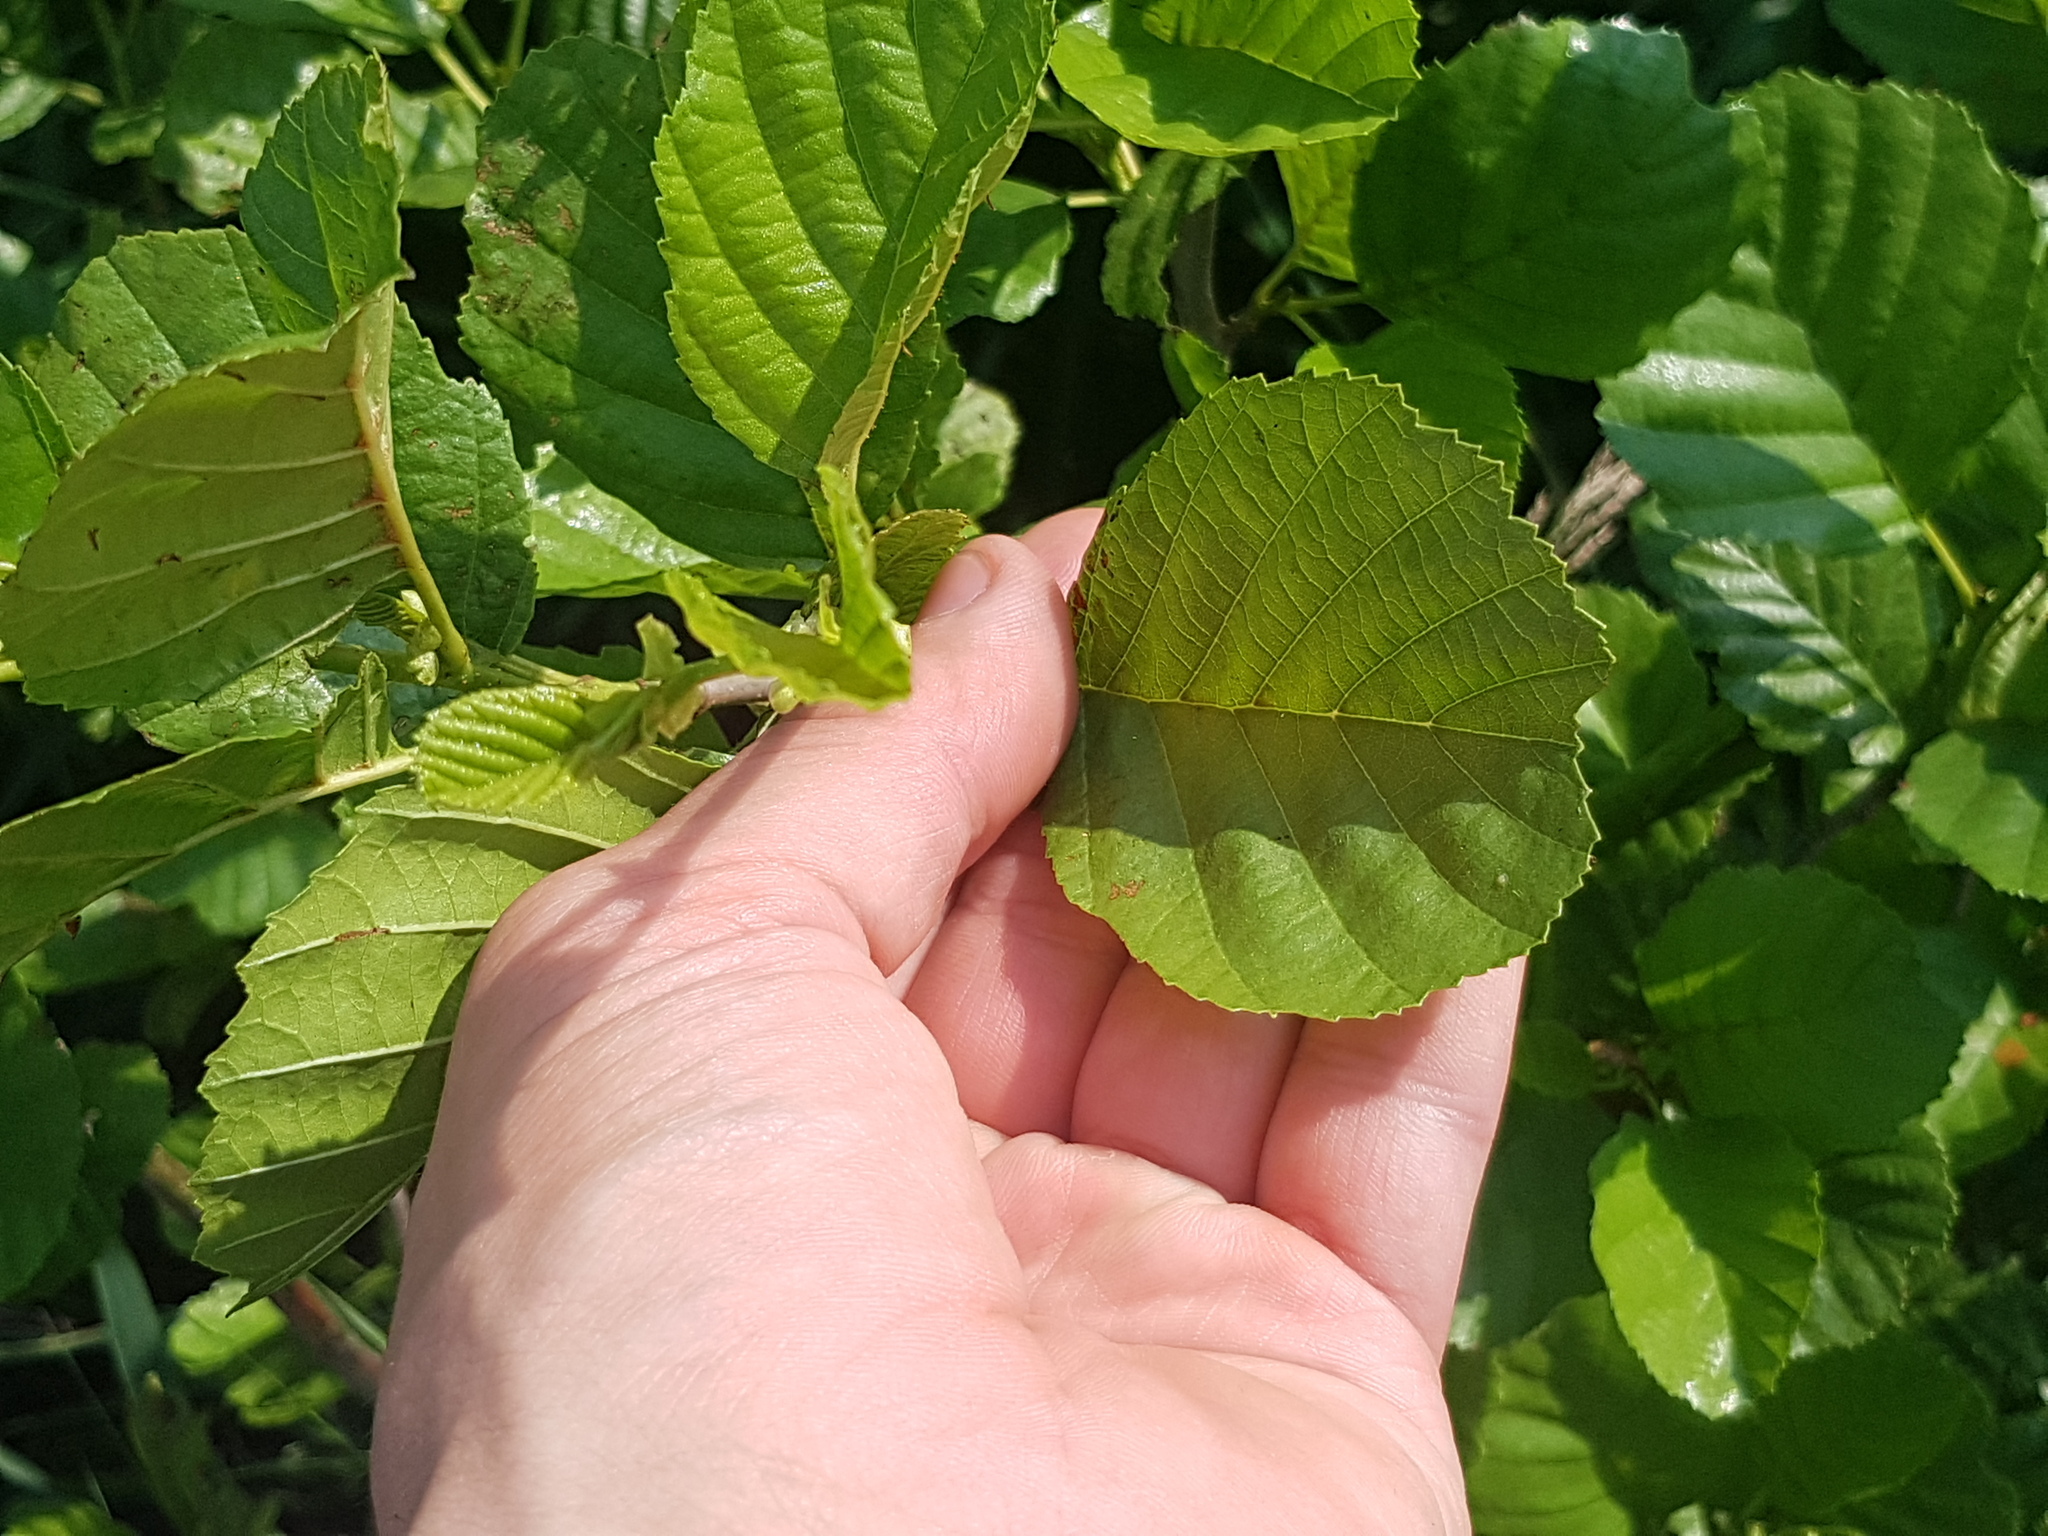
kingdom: Plantae
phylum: Tracheophyta
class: Magnoliopsida
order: Fagales
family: Betulaceae
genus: Alnus
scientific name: Alnus glutinosa
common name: Black alder
